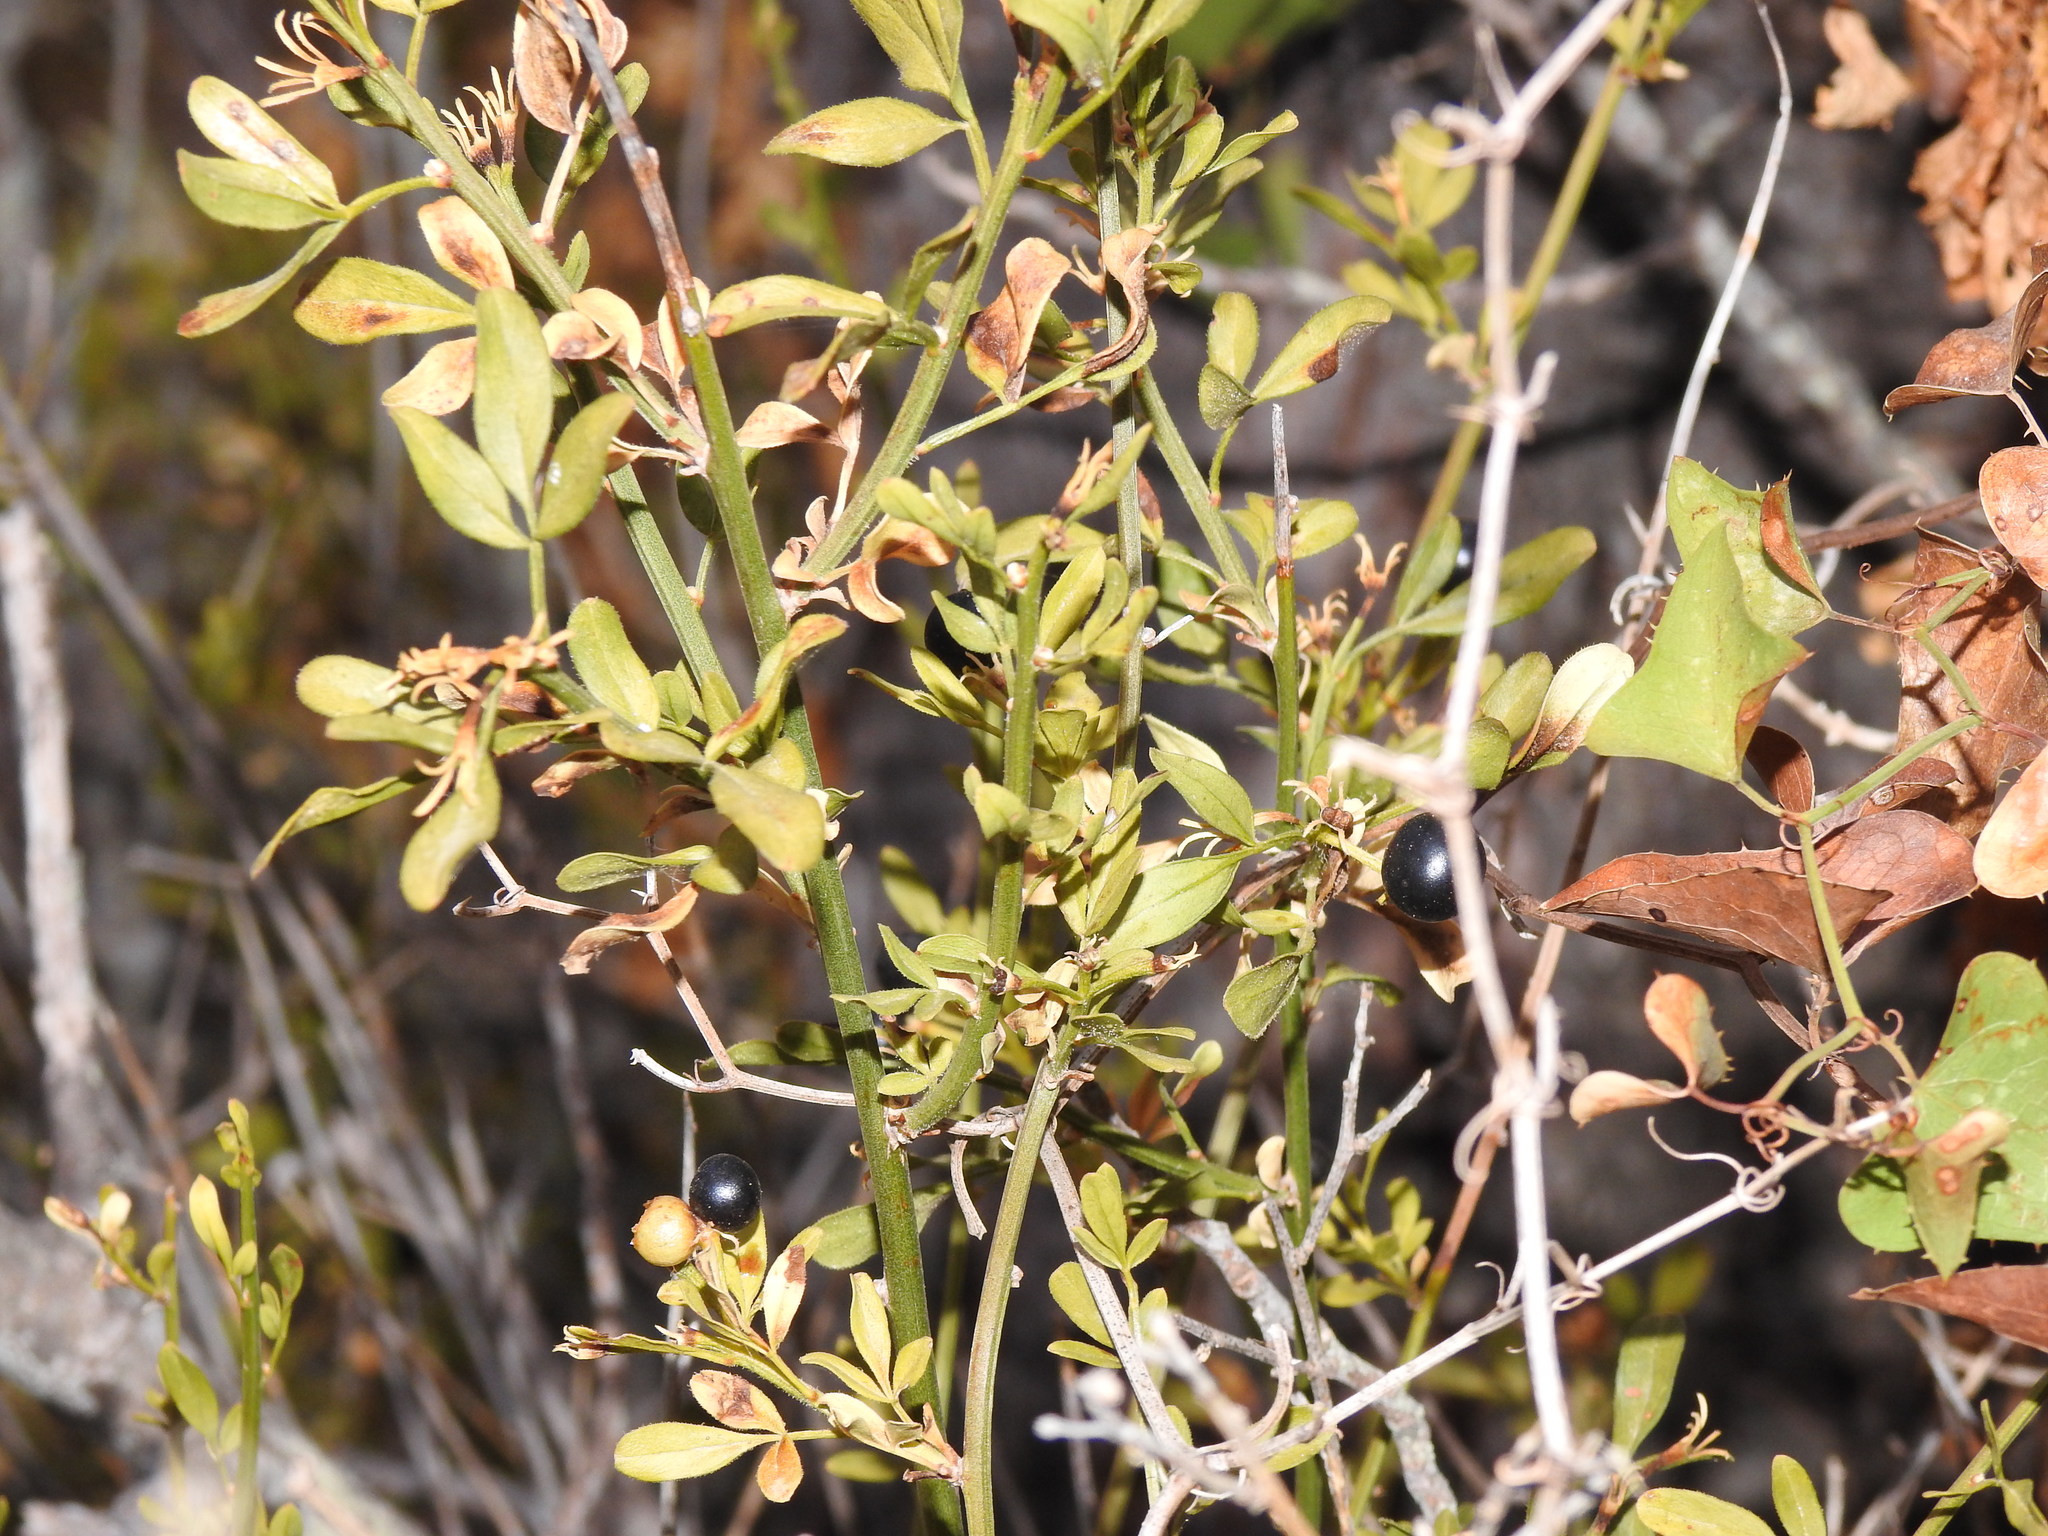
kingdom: Plantae
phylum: Tracheophyta
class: Magnoliopsida
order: Lamiales
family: Oleaceae
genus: Chrysojasminum
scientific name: Chrysojasminum fruticans
